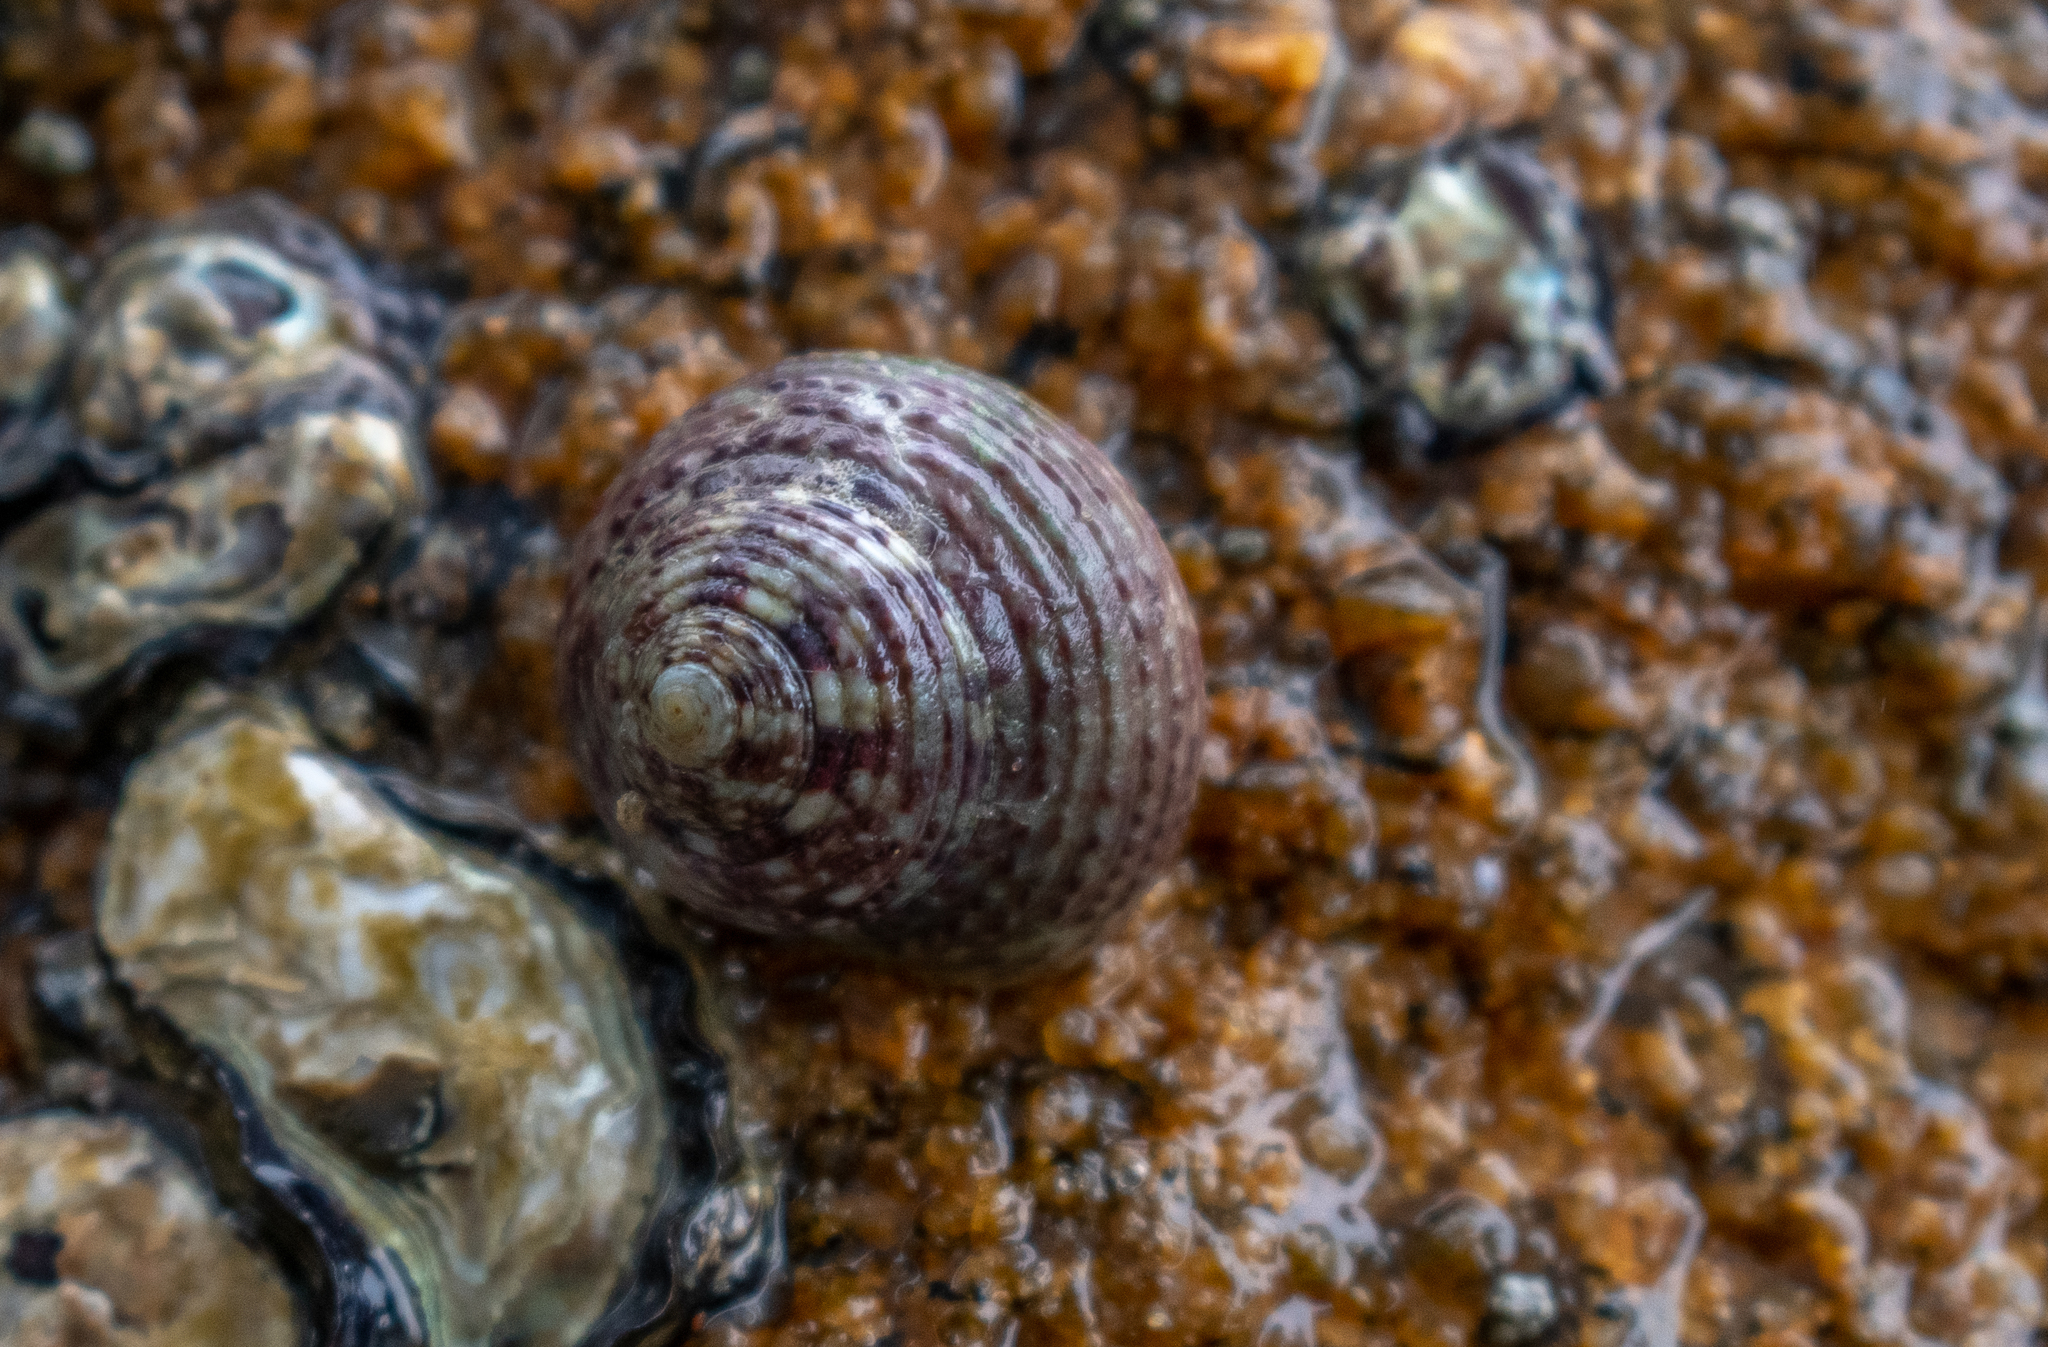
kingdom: Animalia
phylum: Mollusca
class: Gastropoda
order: Trochida
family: Tegulidae
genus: Agathistoma
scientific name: Agathistoma viridulum
